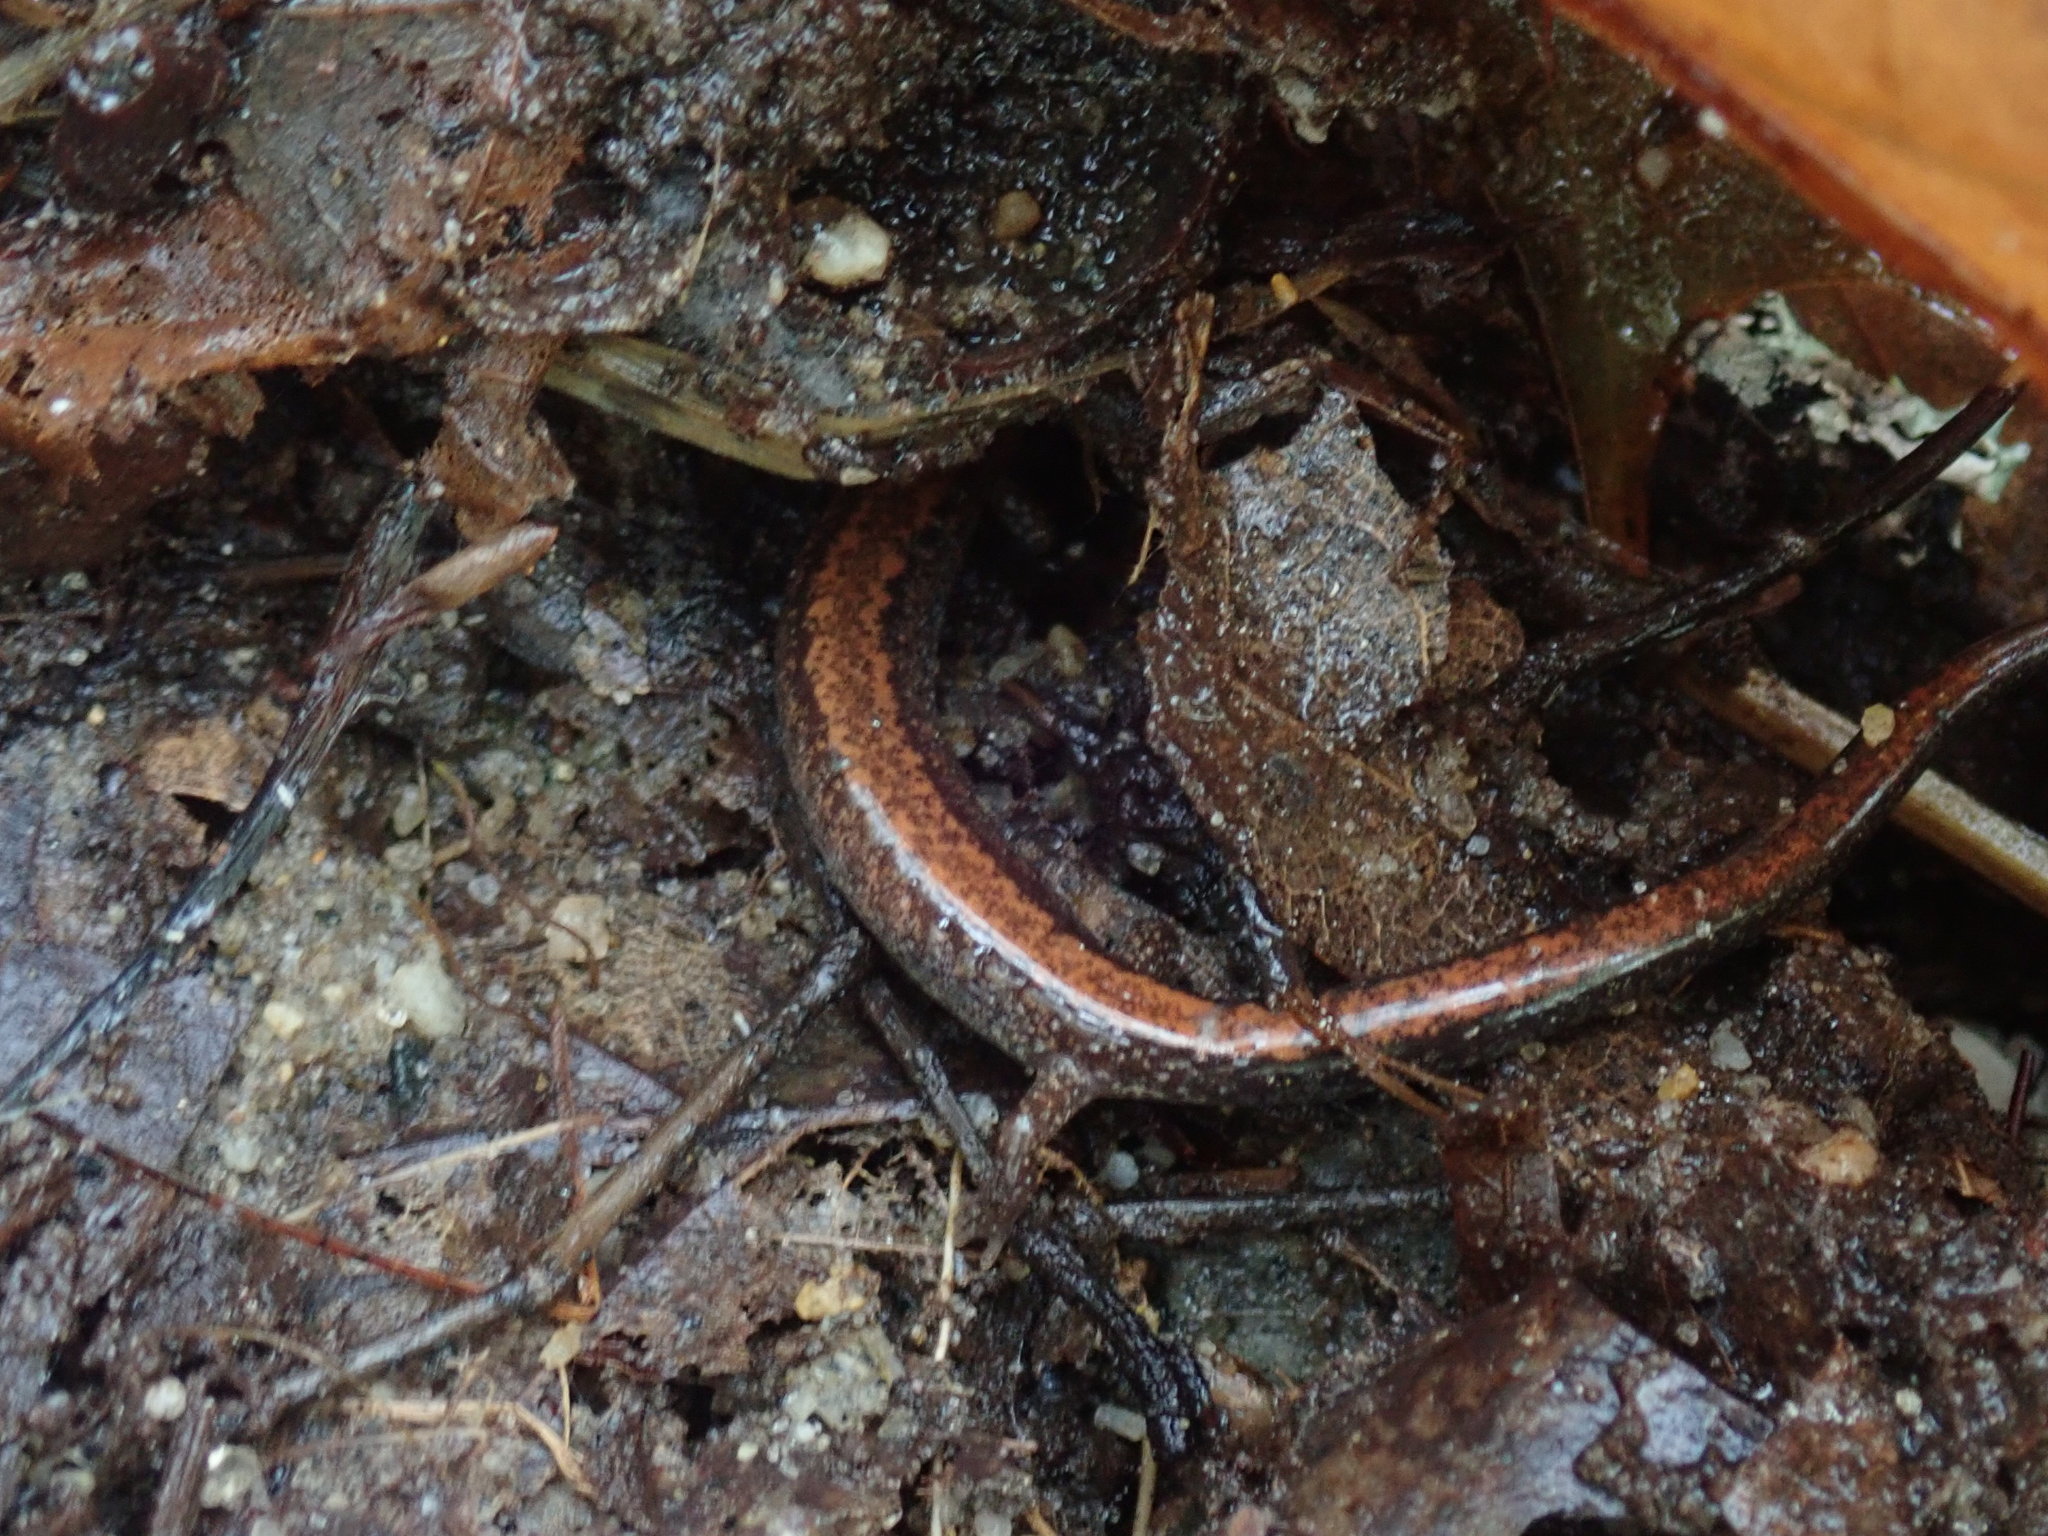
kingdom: Animalia
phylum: Chordata
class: Amphibia
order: Caudata
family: Plethodontidae
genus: Plethodon
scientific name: Plethodon cinereus
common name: Redback salamander
